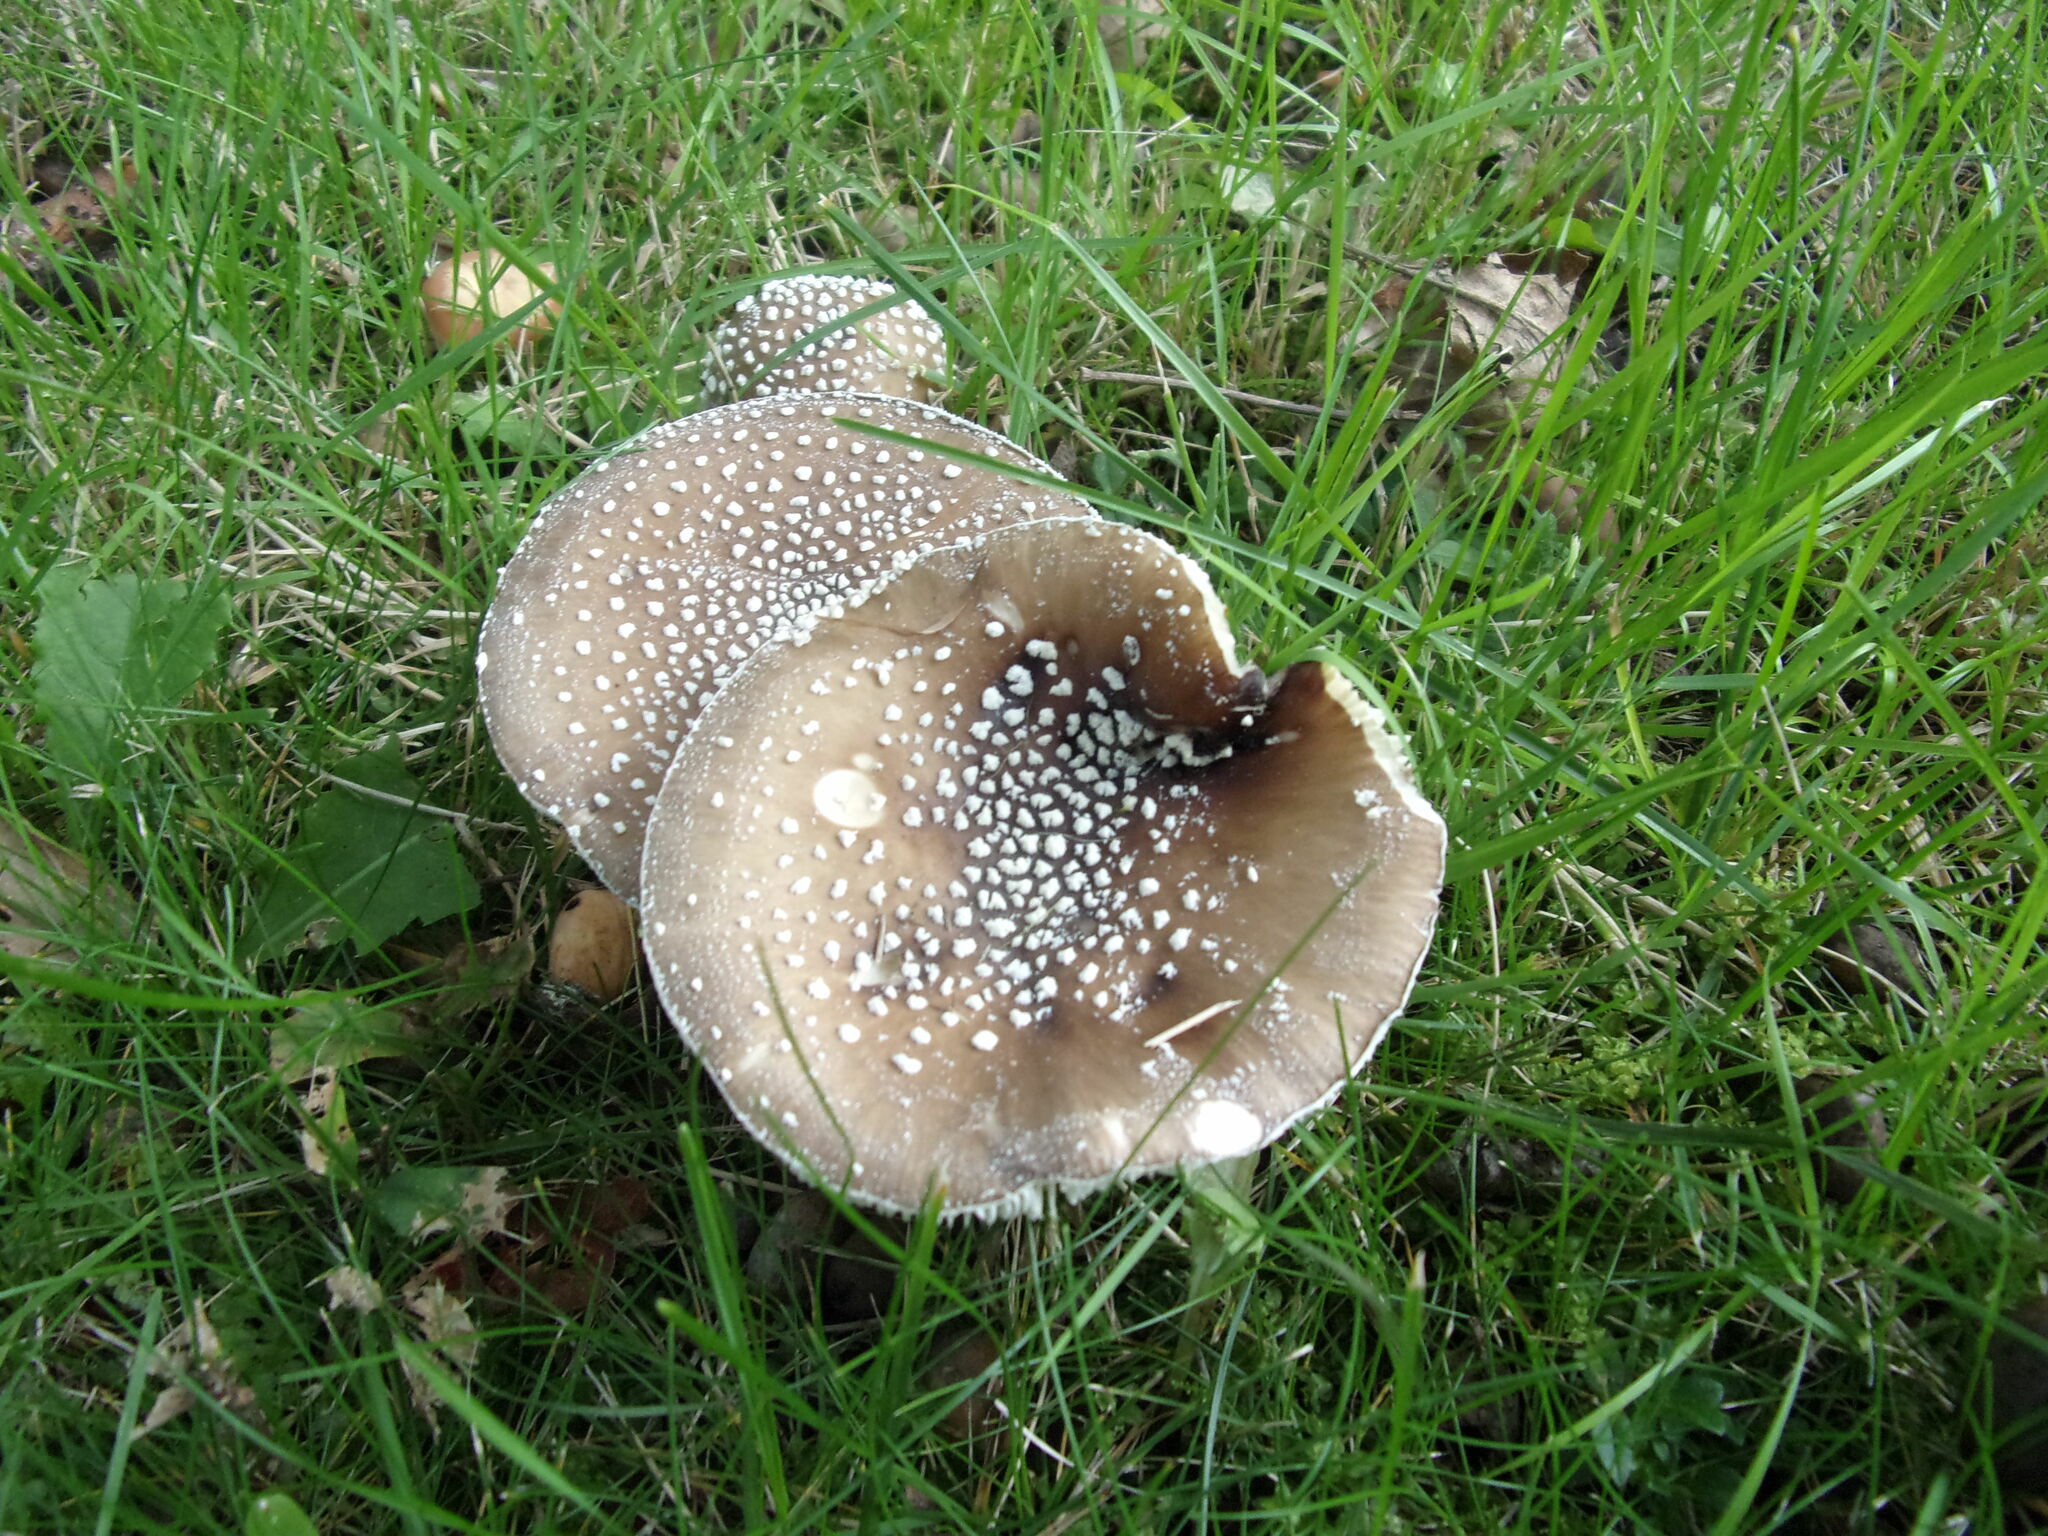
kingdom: Fungi
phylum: Basidiomycota
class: Agaricomycetes
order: Agaricales
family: Amanitaceae
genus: Amanita
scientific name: Amanita pantherina
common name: Panthercap
